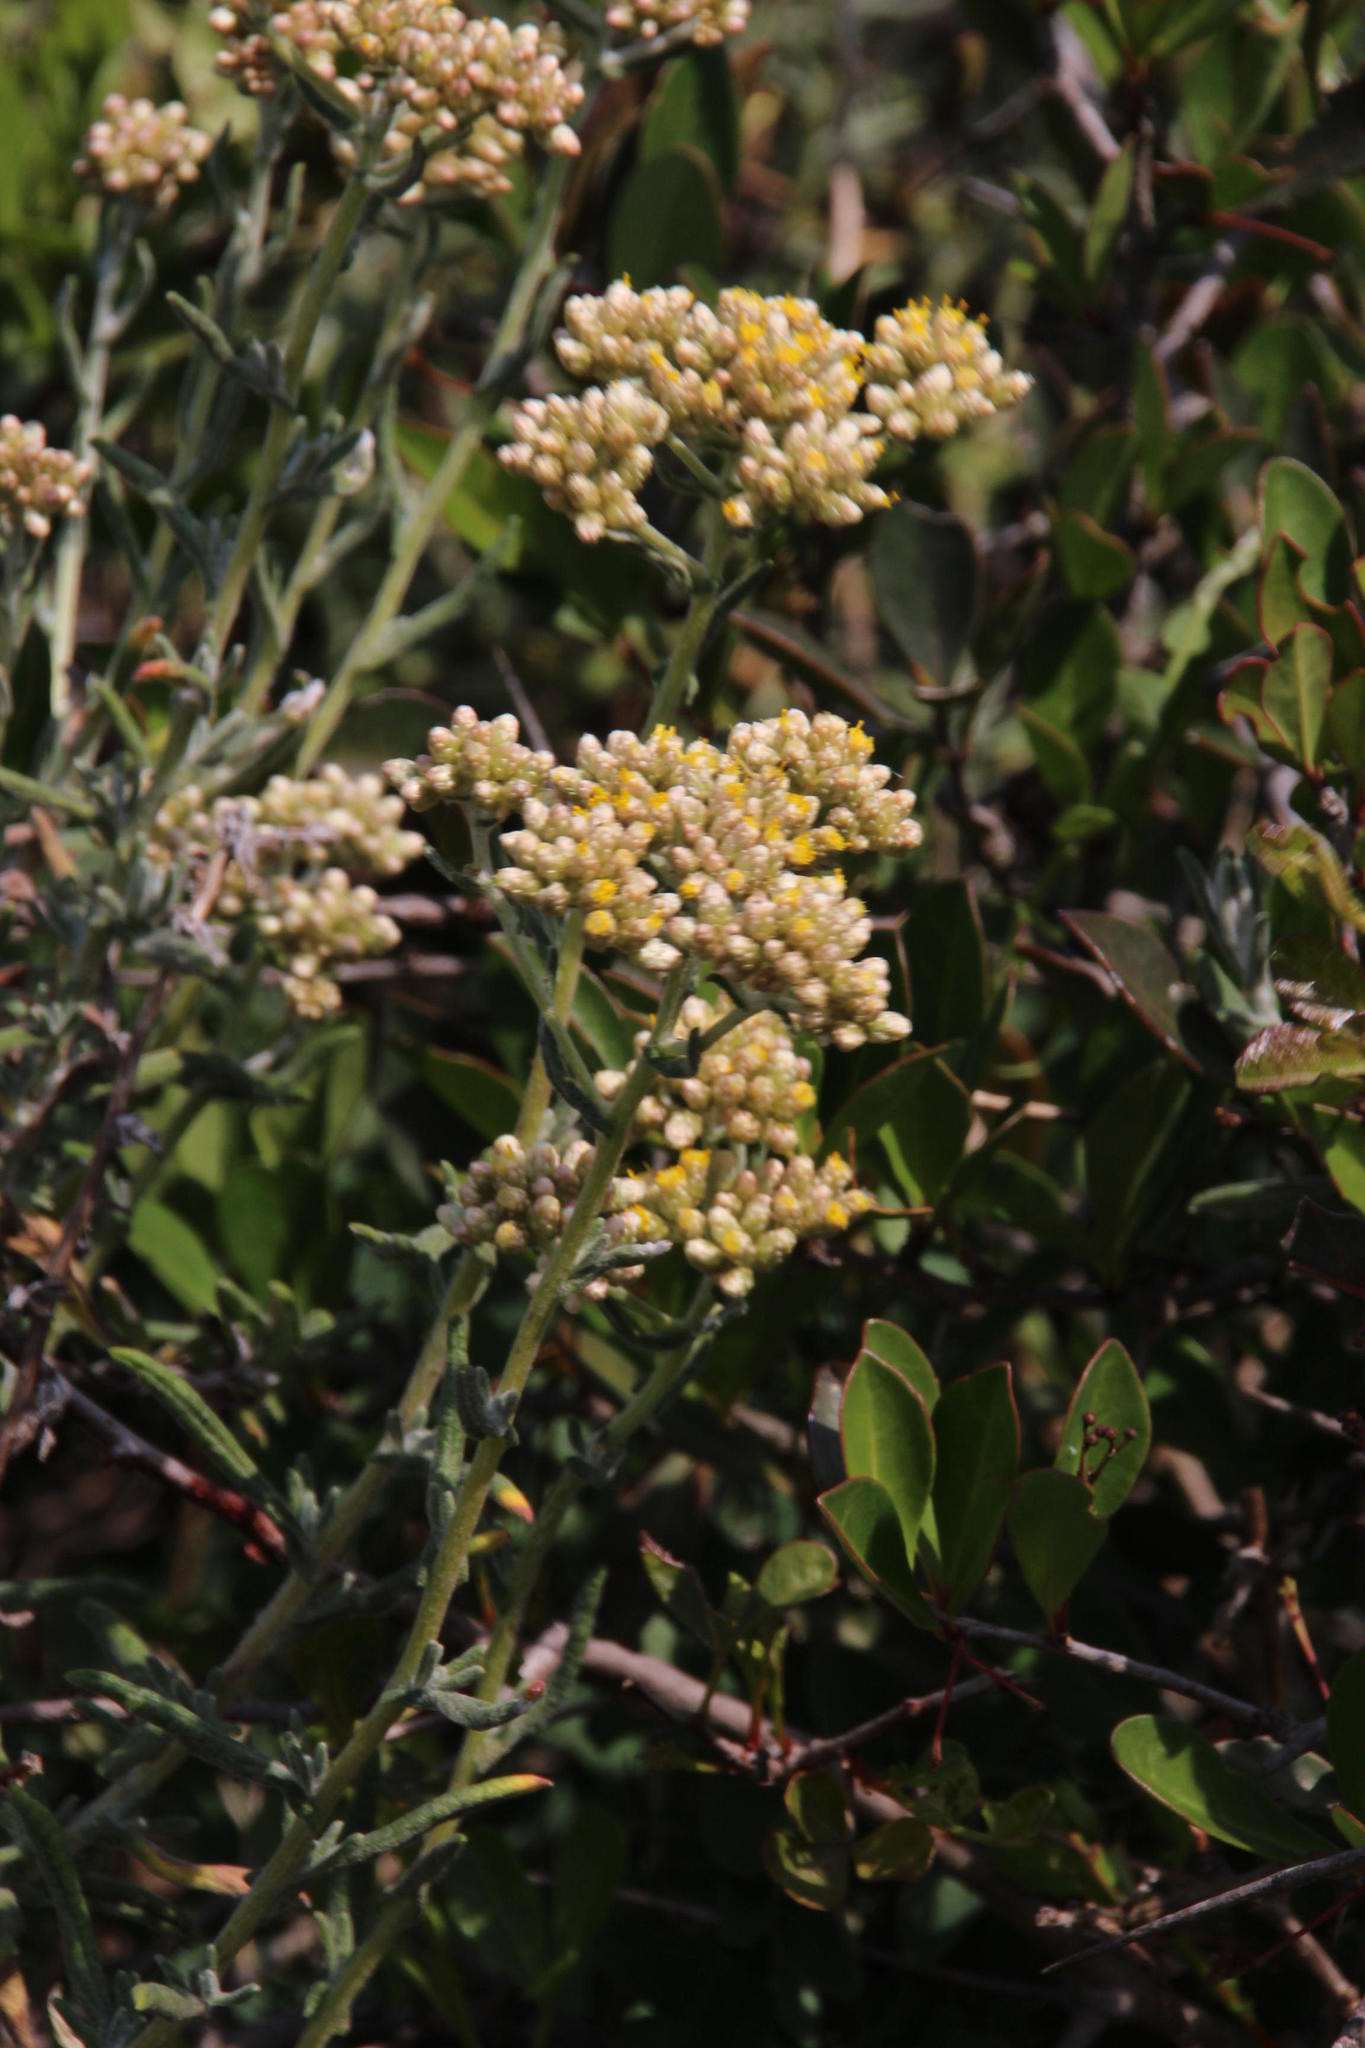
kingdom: Plantae
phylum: Tracheophyta
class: Magnoliopsida
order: Asterales
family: Asteraceae
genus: Helichrysum
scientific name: Helichrysum revolutum
